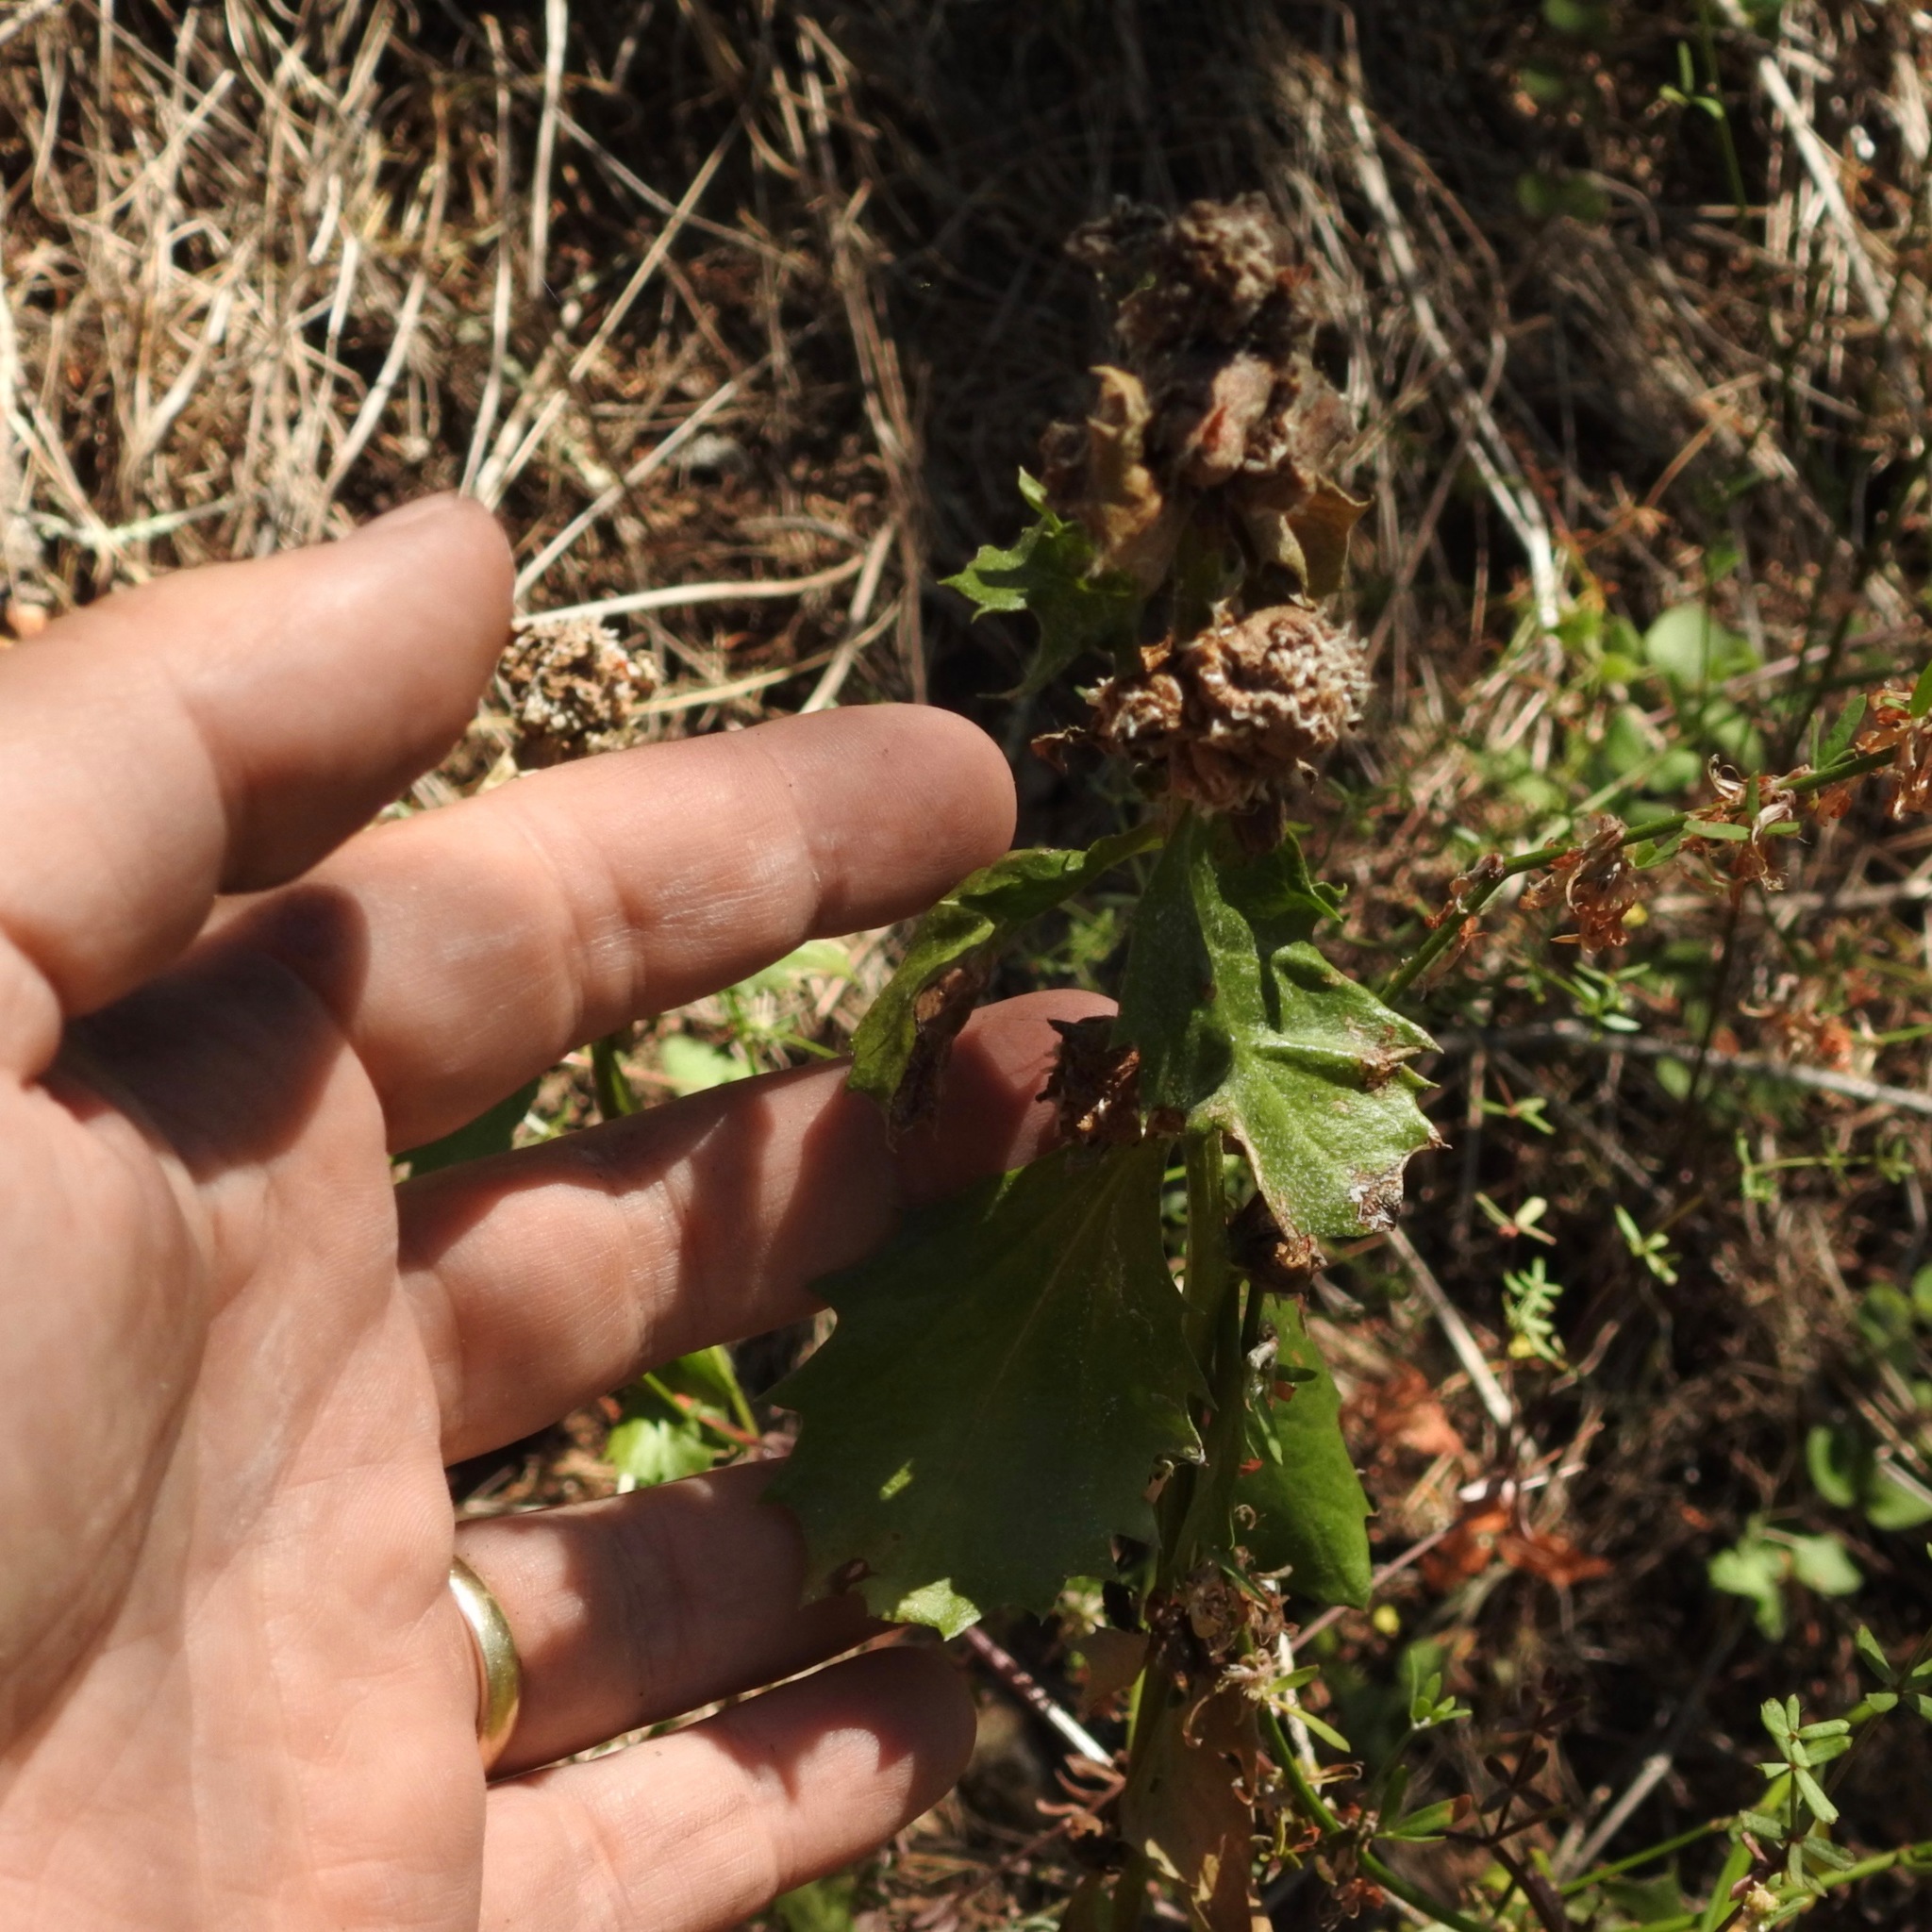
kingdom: Plantae
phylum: Tracheophyta
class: Magnoliopsida
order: Asterales
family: Asteraceae
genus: Baccharis
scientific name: Baccharis pilularis
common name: Coyotebrush
